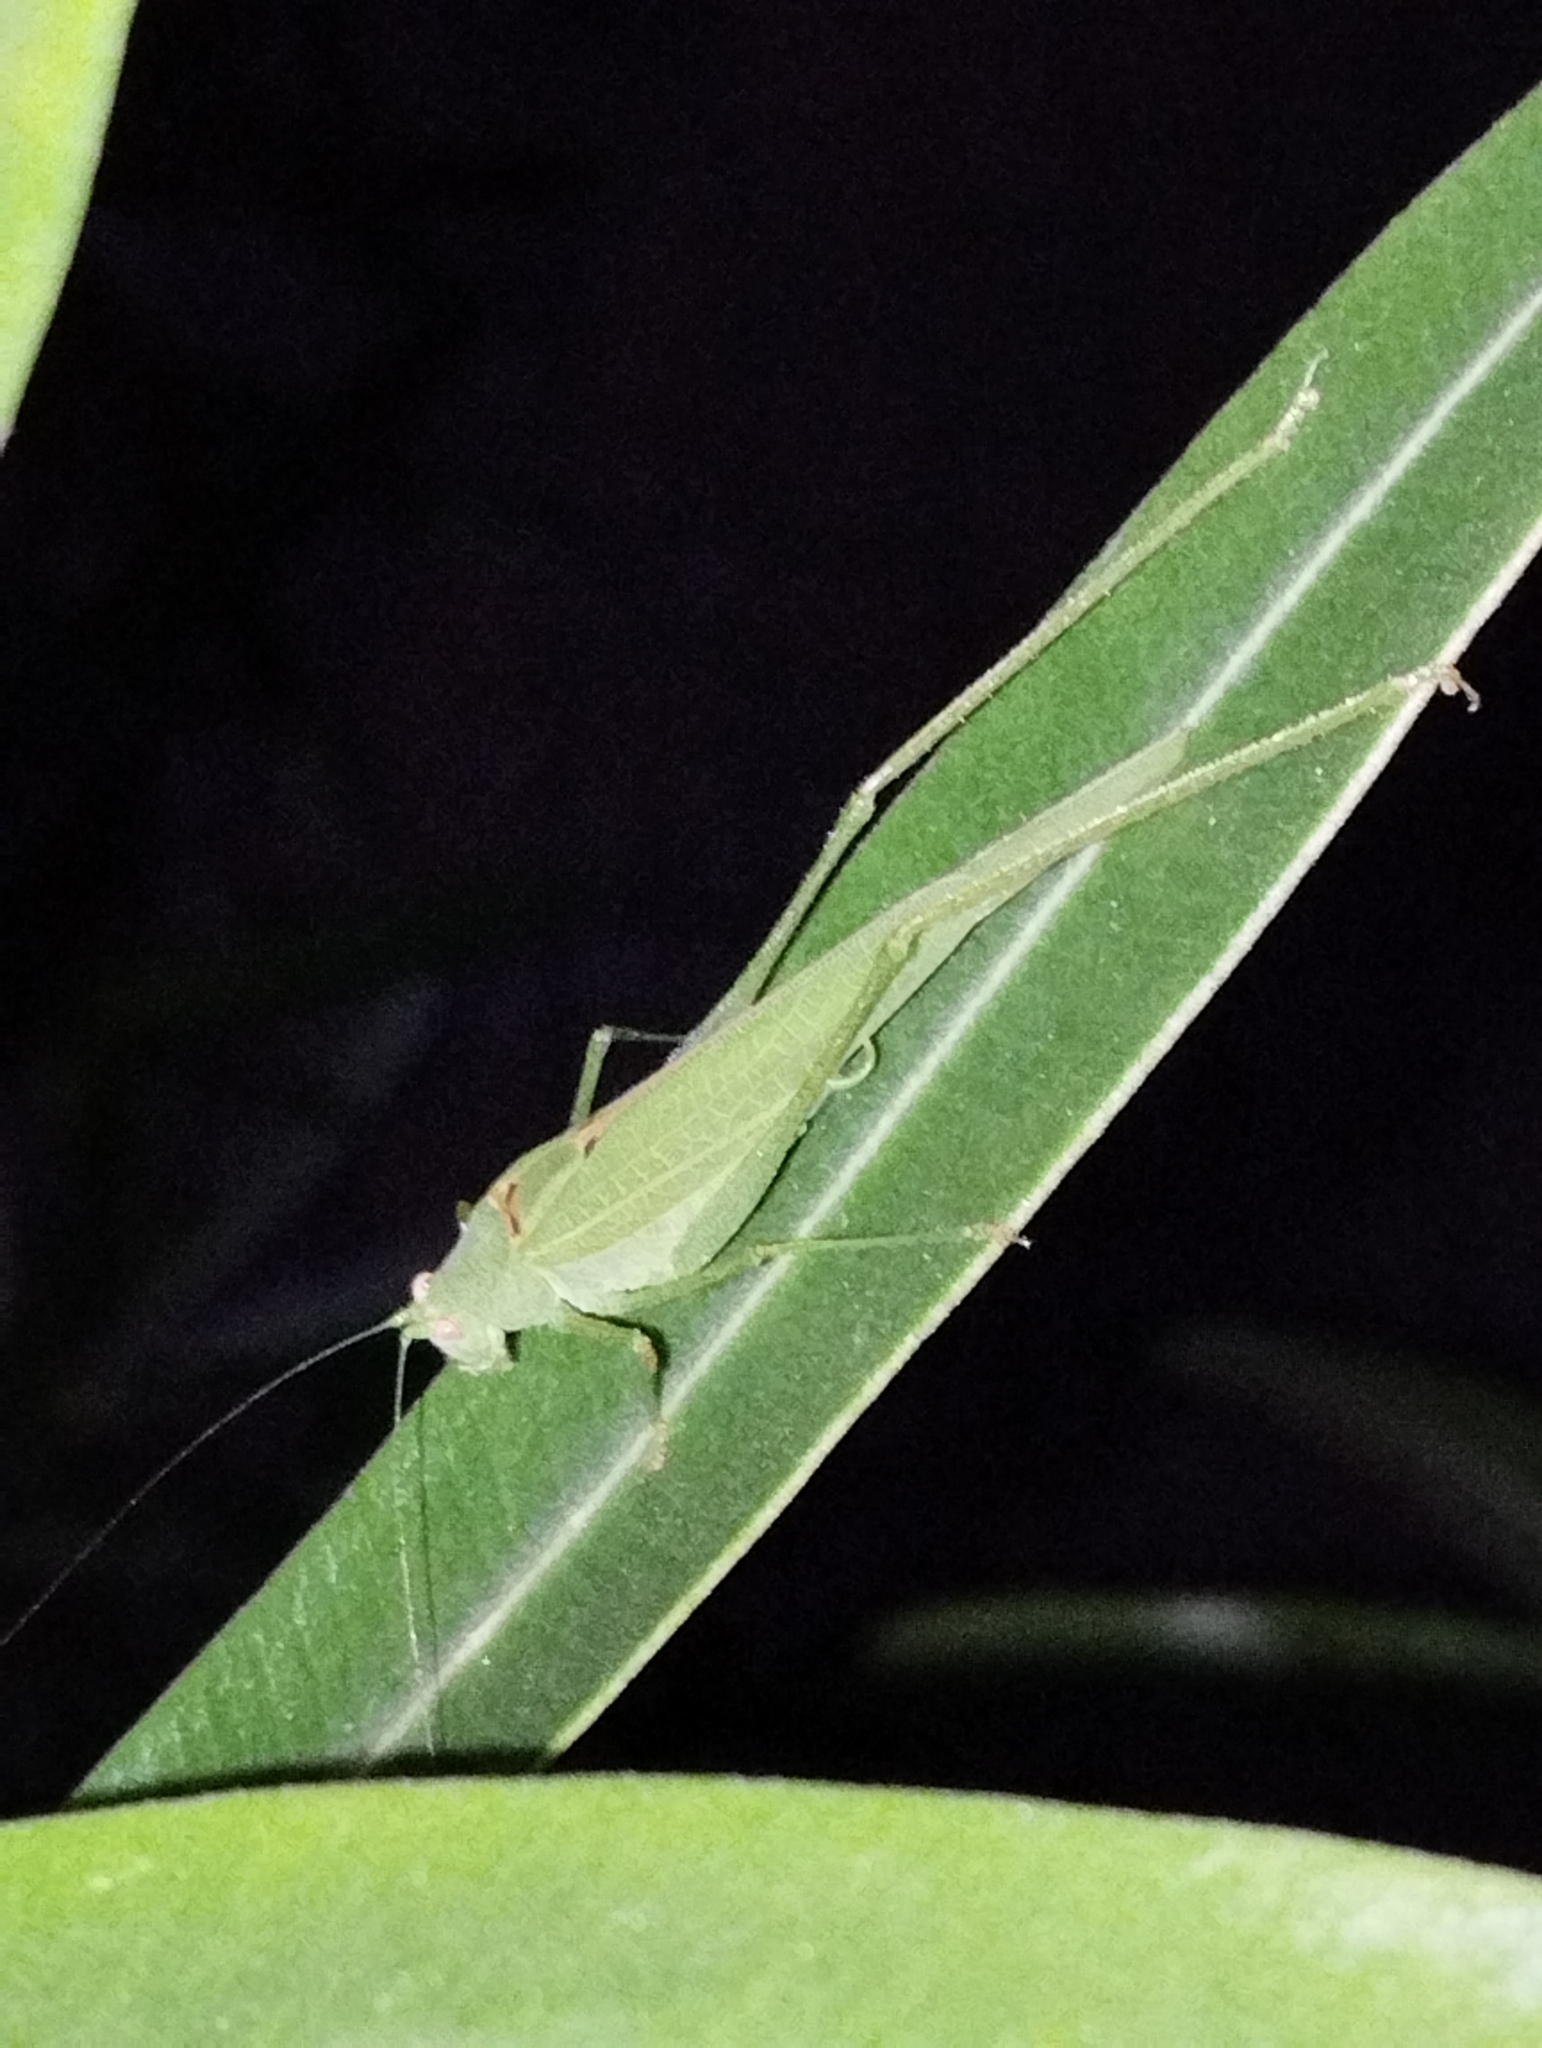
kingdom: Animalia
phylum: Arthropoda
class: Insecta
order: Orthoptera
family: Tettigoniidae
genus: Phaneroptera
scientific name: Phaneroptera nana
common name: Southern sickle bush-cricket
